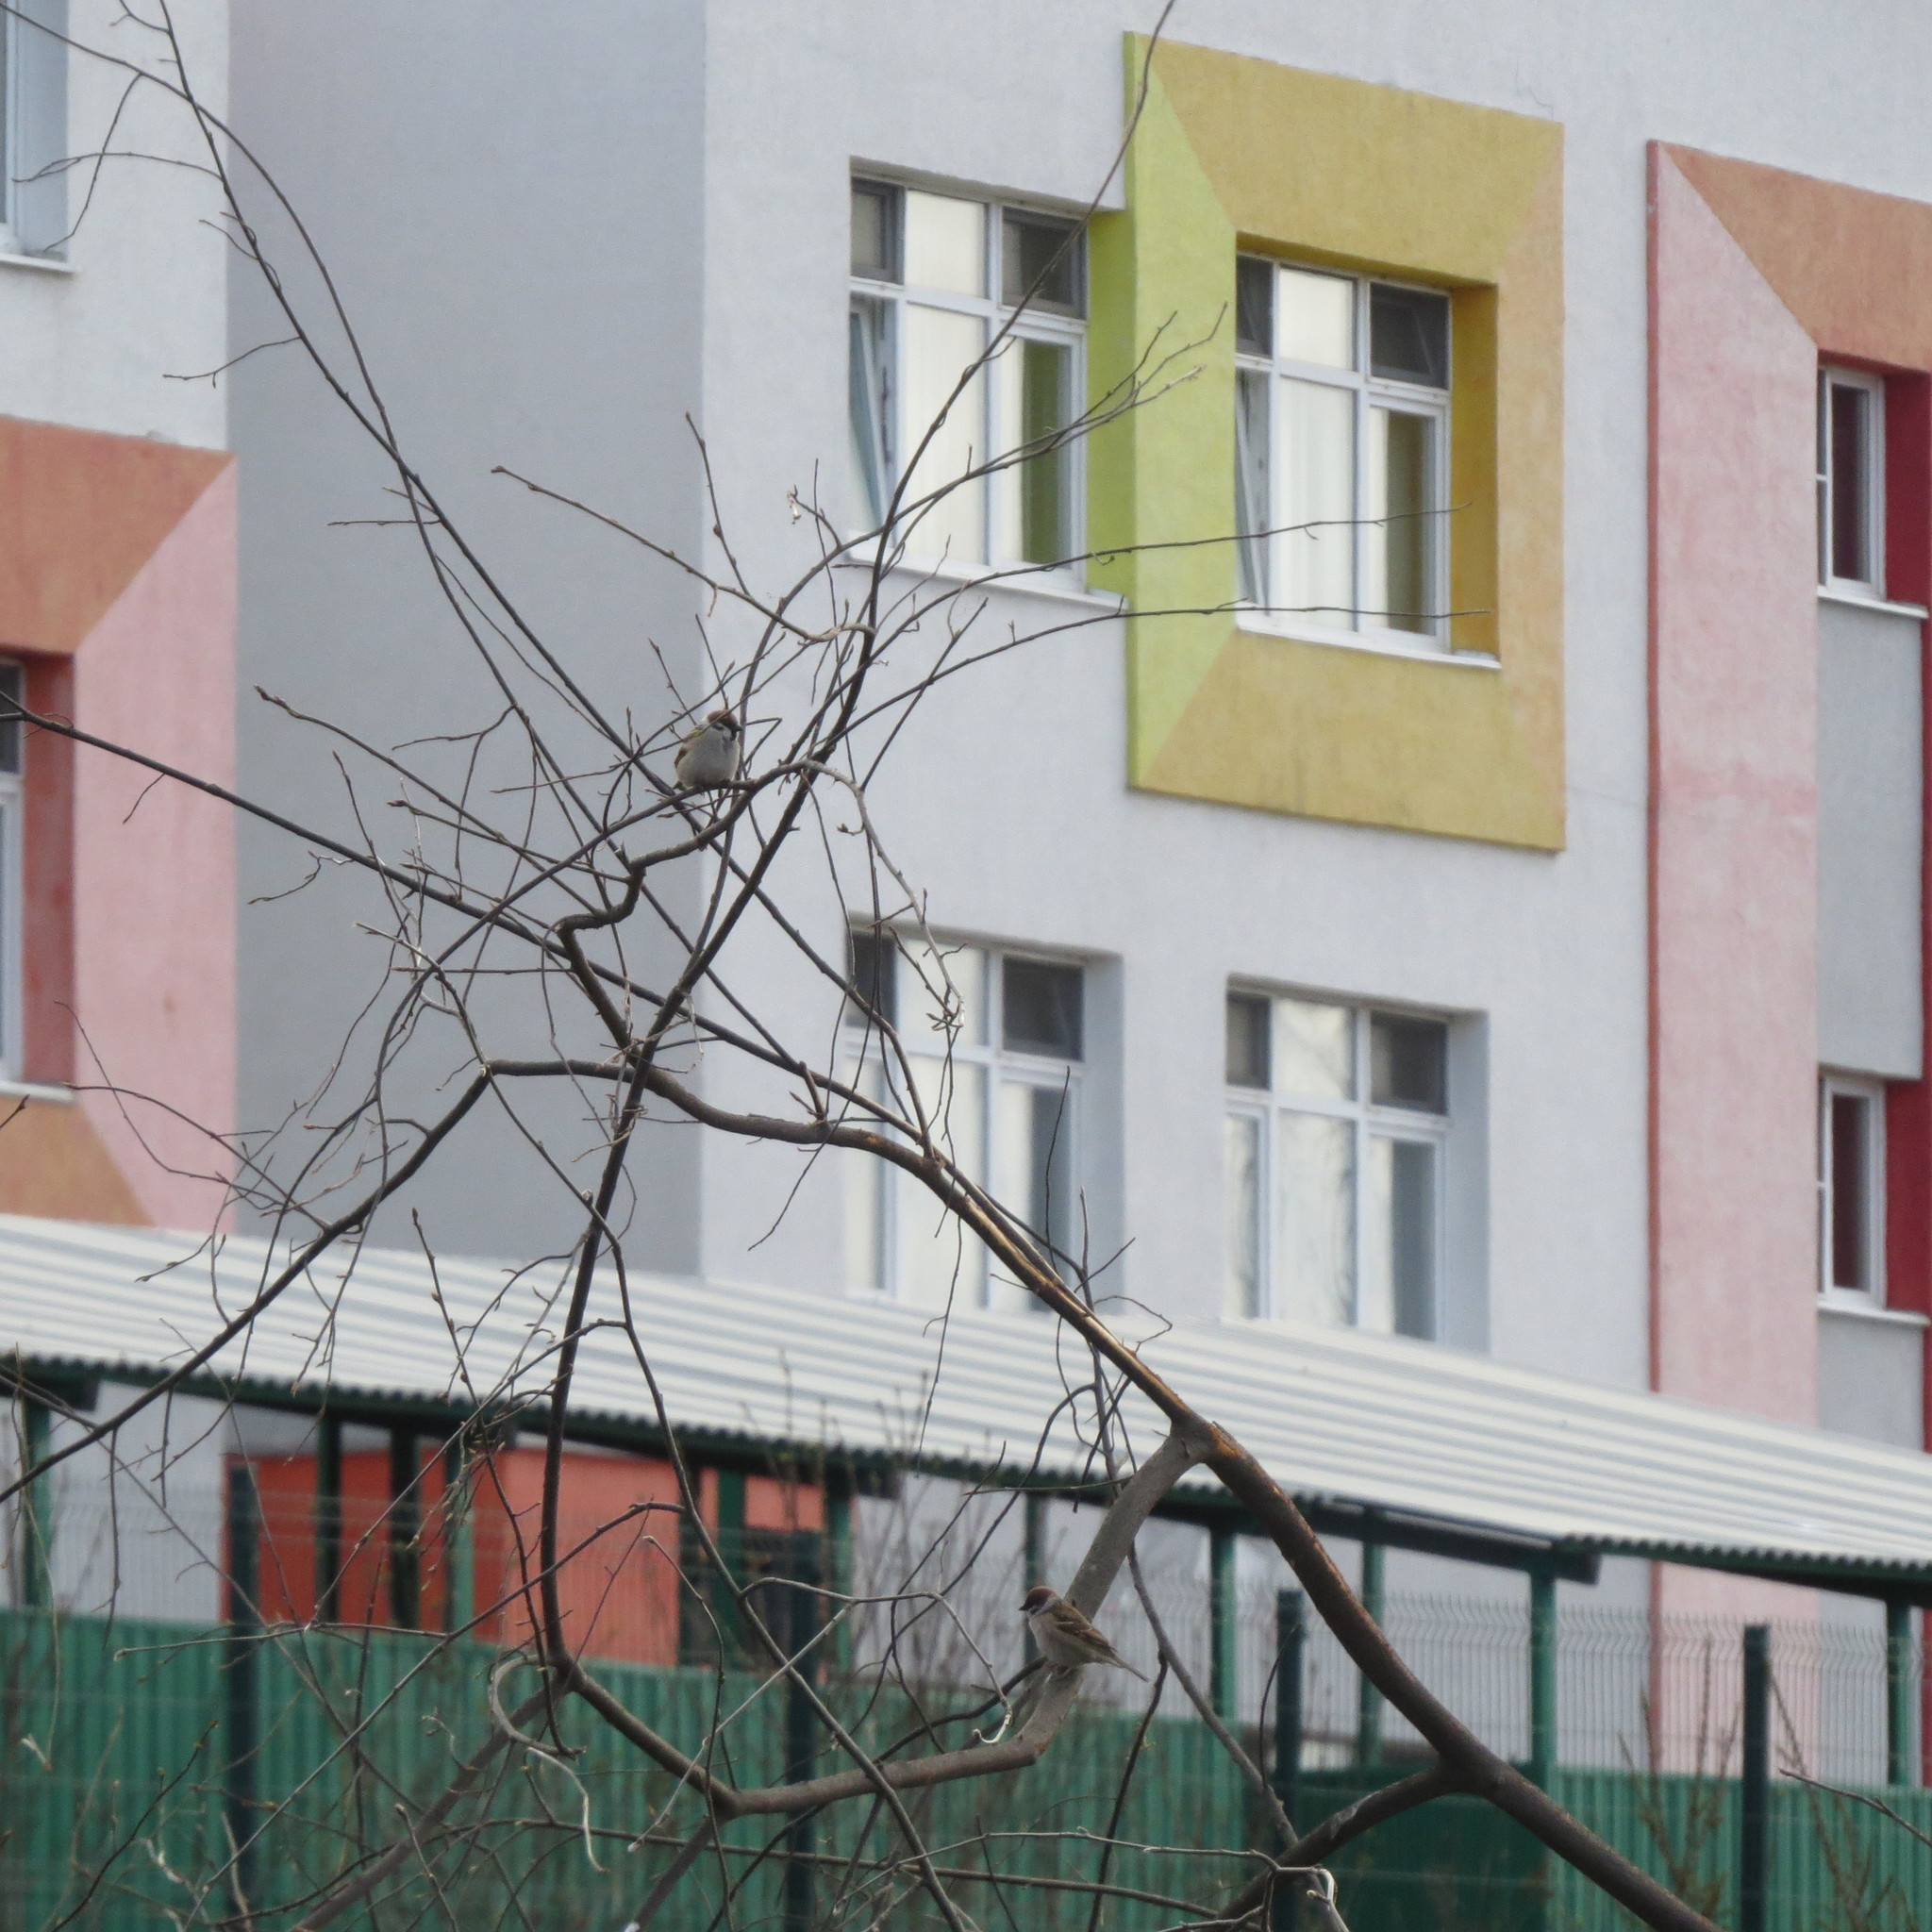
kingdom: Animalia
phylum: Chordata
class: Aves
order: Passeriformes
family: Passeridae
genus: Passer
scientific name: Passer montanus
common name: Eurasian tree sparrow
